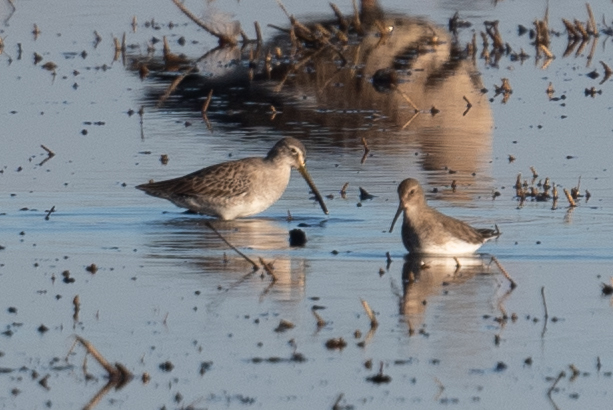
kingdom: Animalia
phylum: Chordata
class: Aves
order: Charadriiformes
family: Scolopacidae
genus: Limnodromus
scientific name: Limnodromus scolopaceus
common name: Long-billed dowitcher
